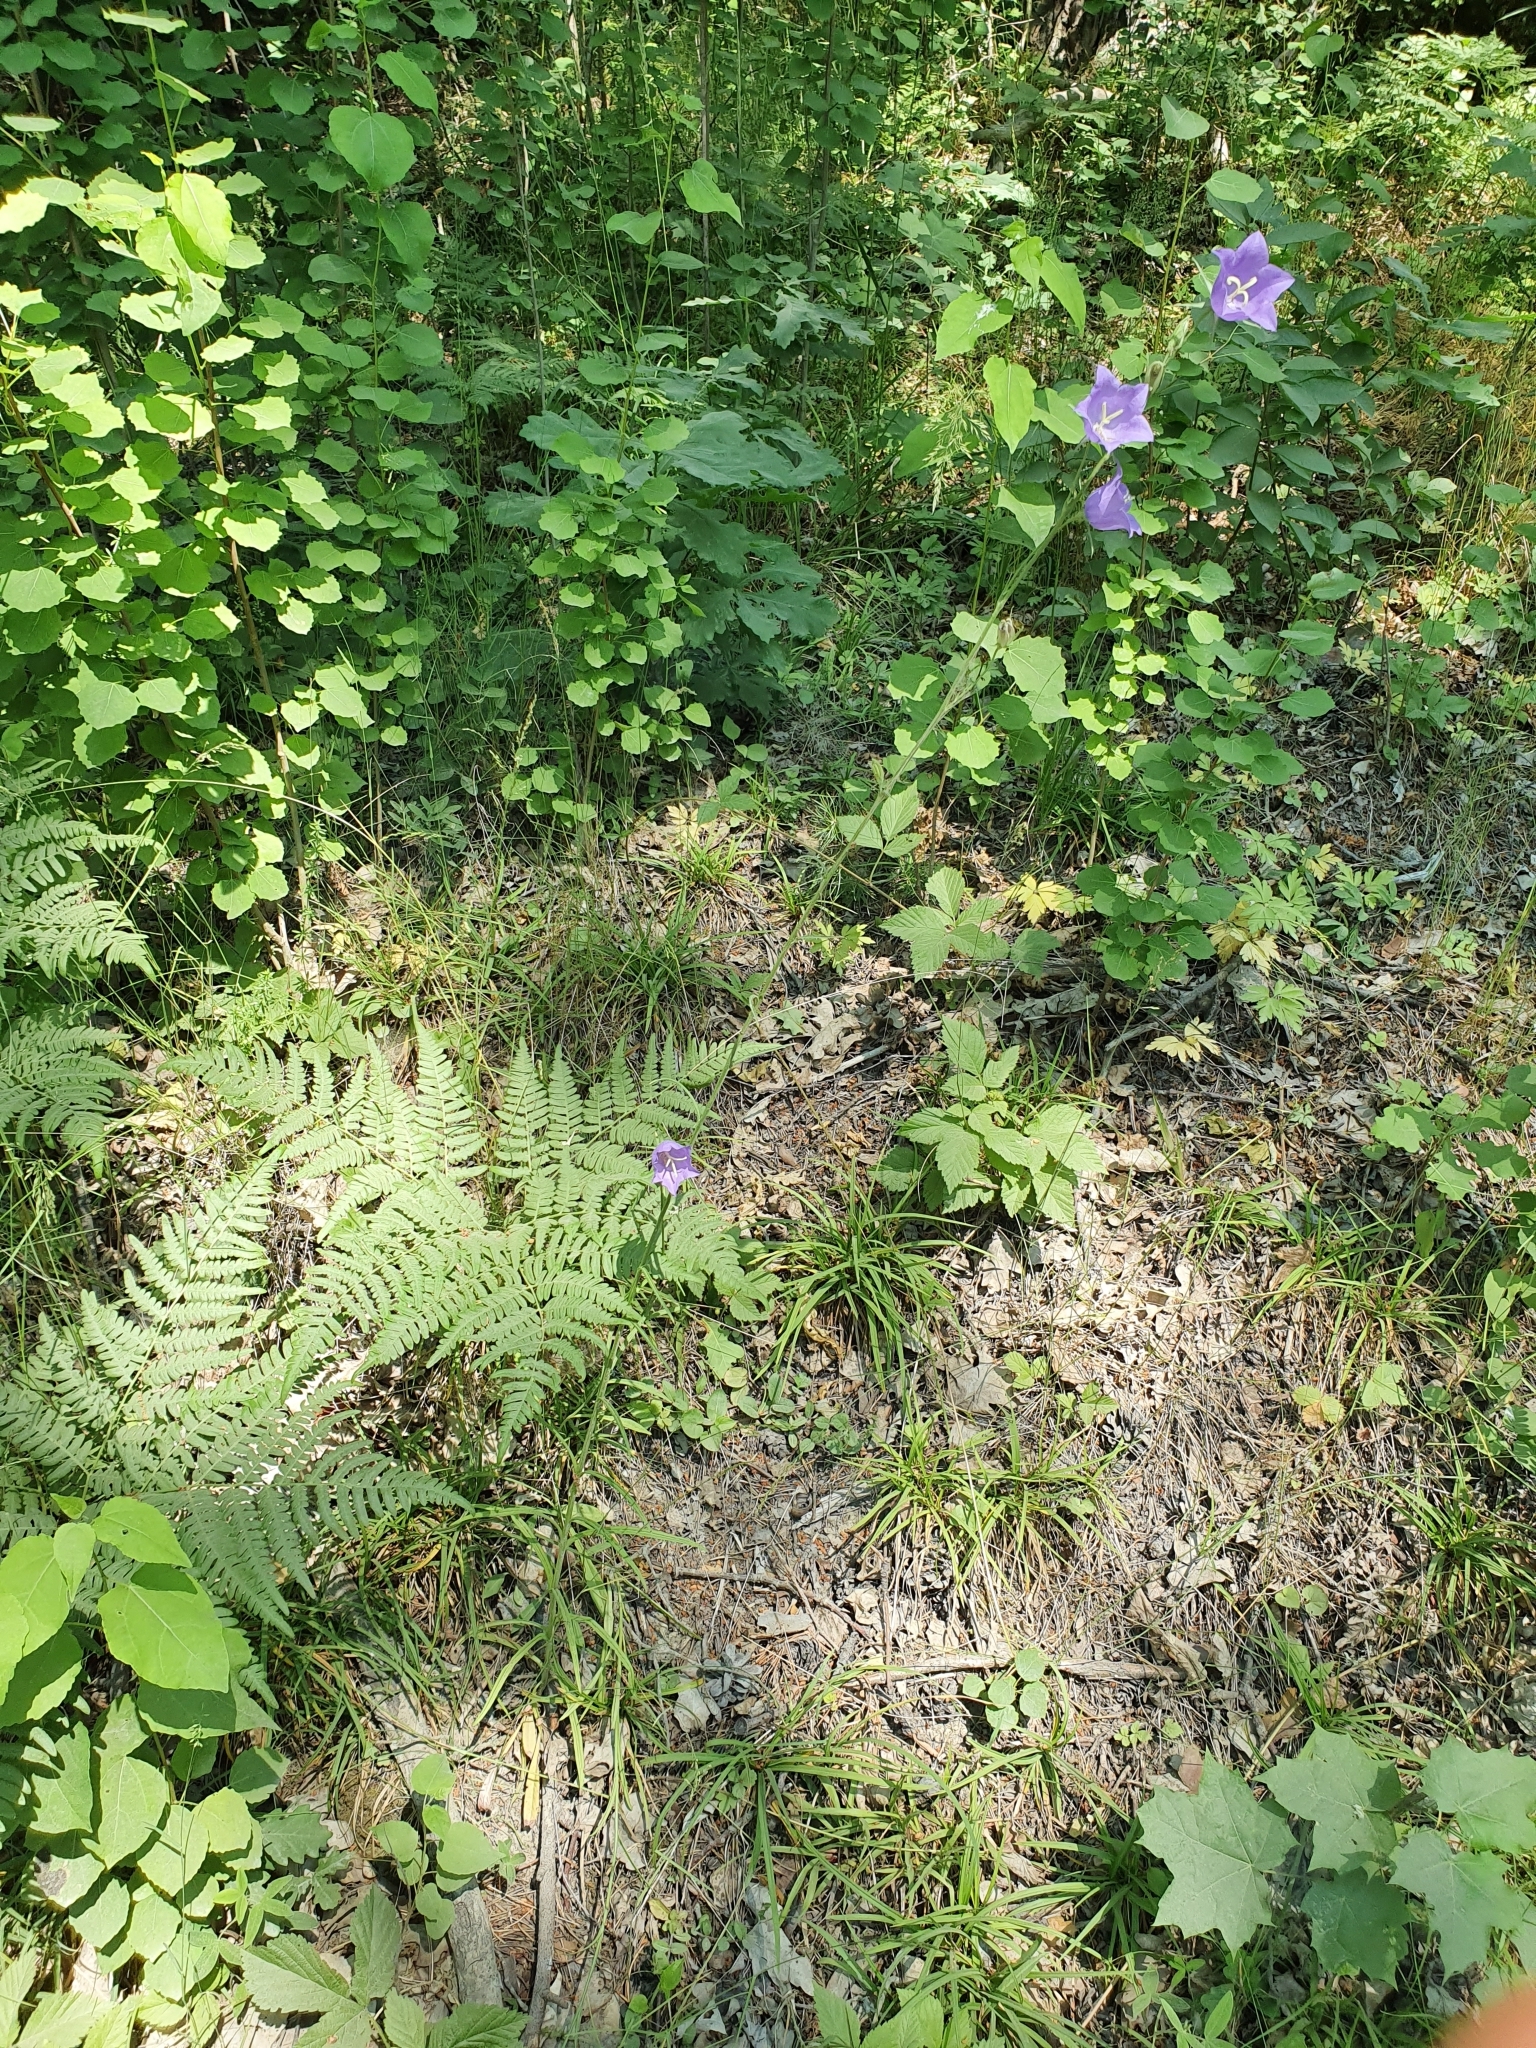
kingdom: Plantae
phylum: Tracheophyta
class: Magnoliopsida
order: Asterales
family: Campanulaceae
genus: Campanula
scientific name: Campanula persicifolia
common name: Peach-leaved bellflower
